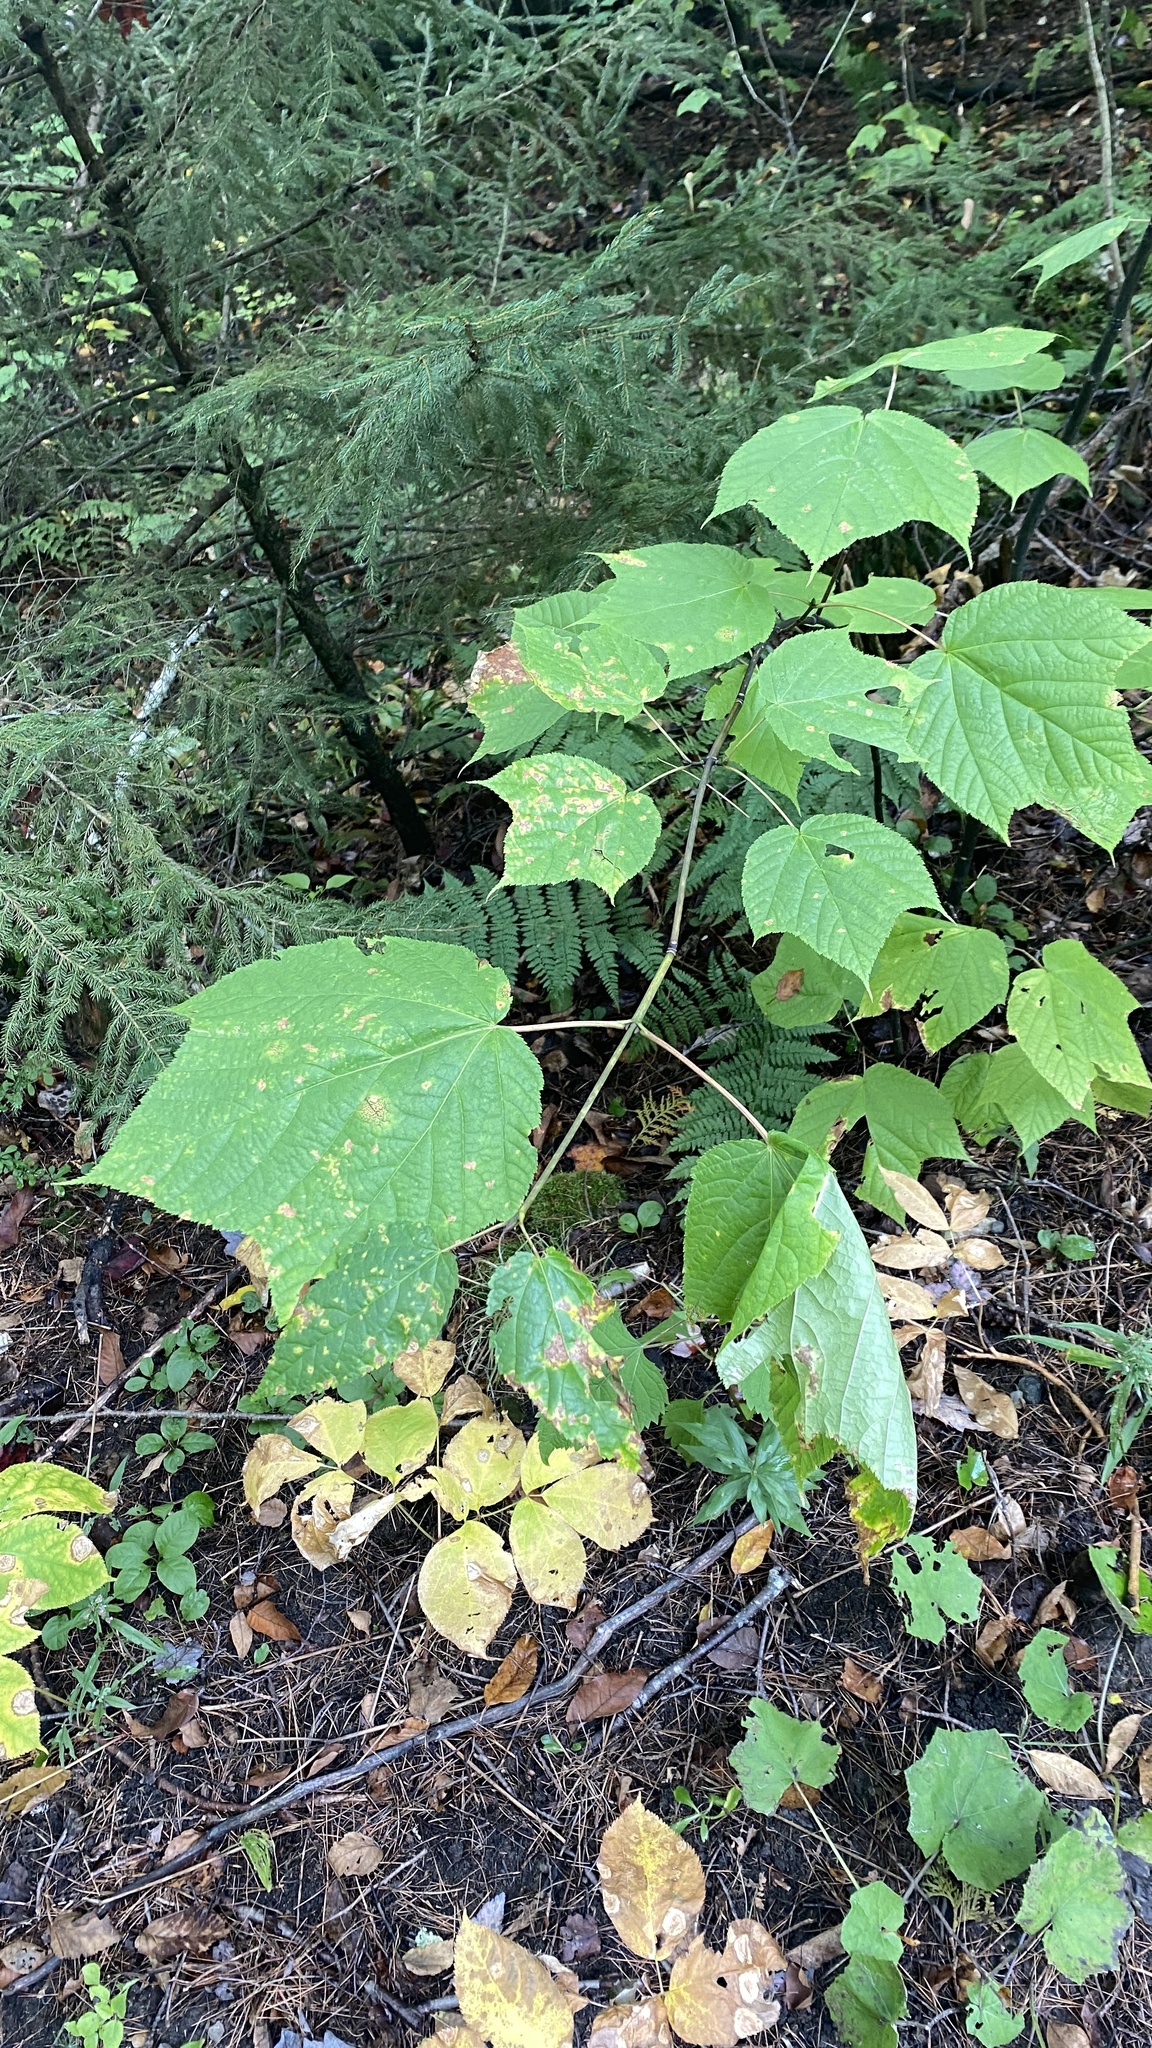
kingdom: Plantae
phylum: Tracheophyta
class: Magnoliopsida
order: Sapindales
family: Sapindaceae
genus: Acer
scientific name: Acer pensylvanicum
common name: Moosewood
